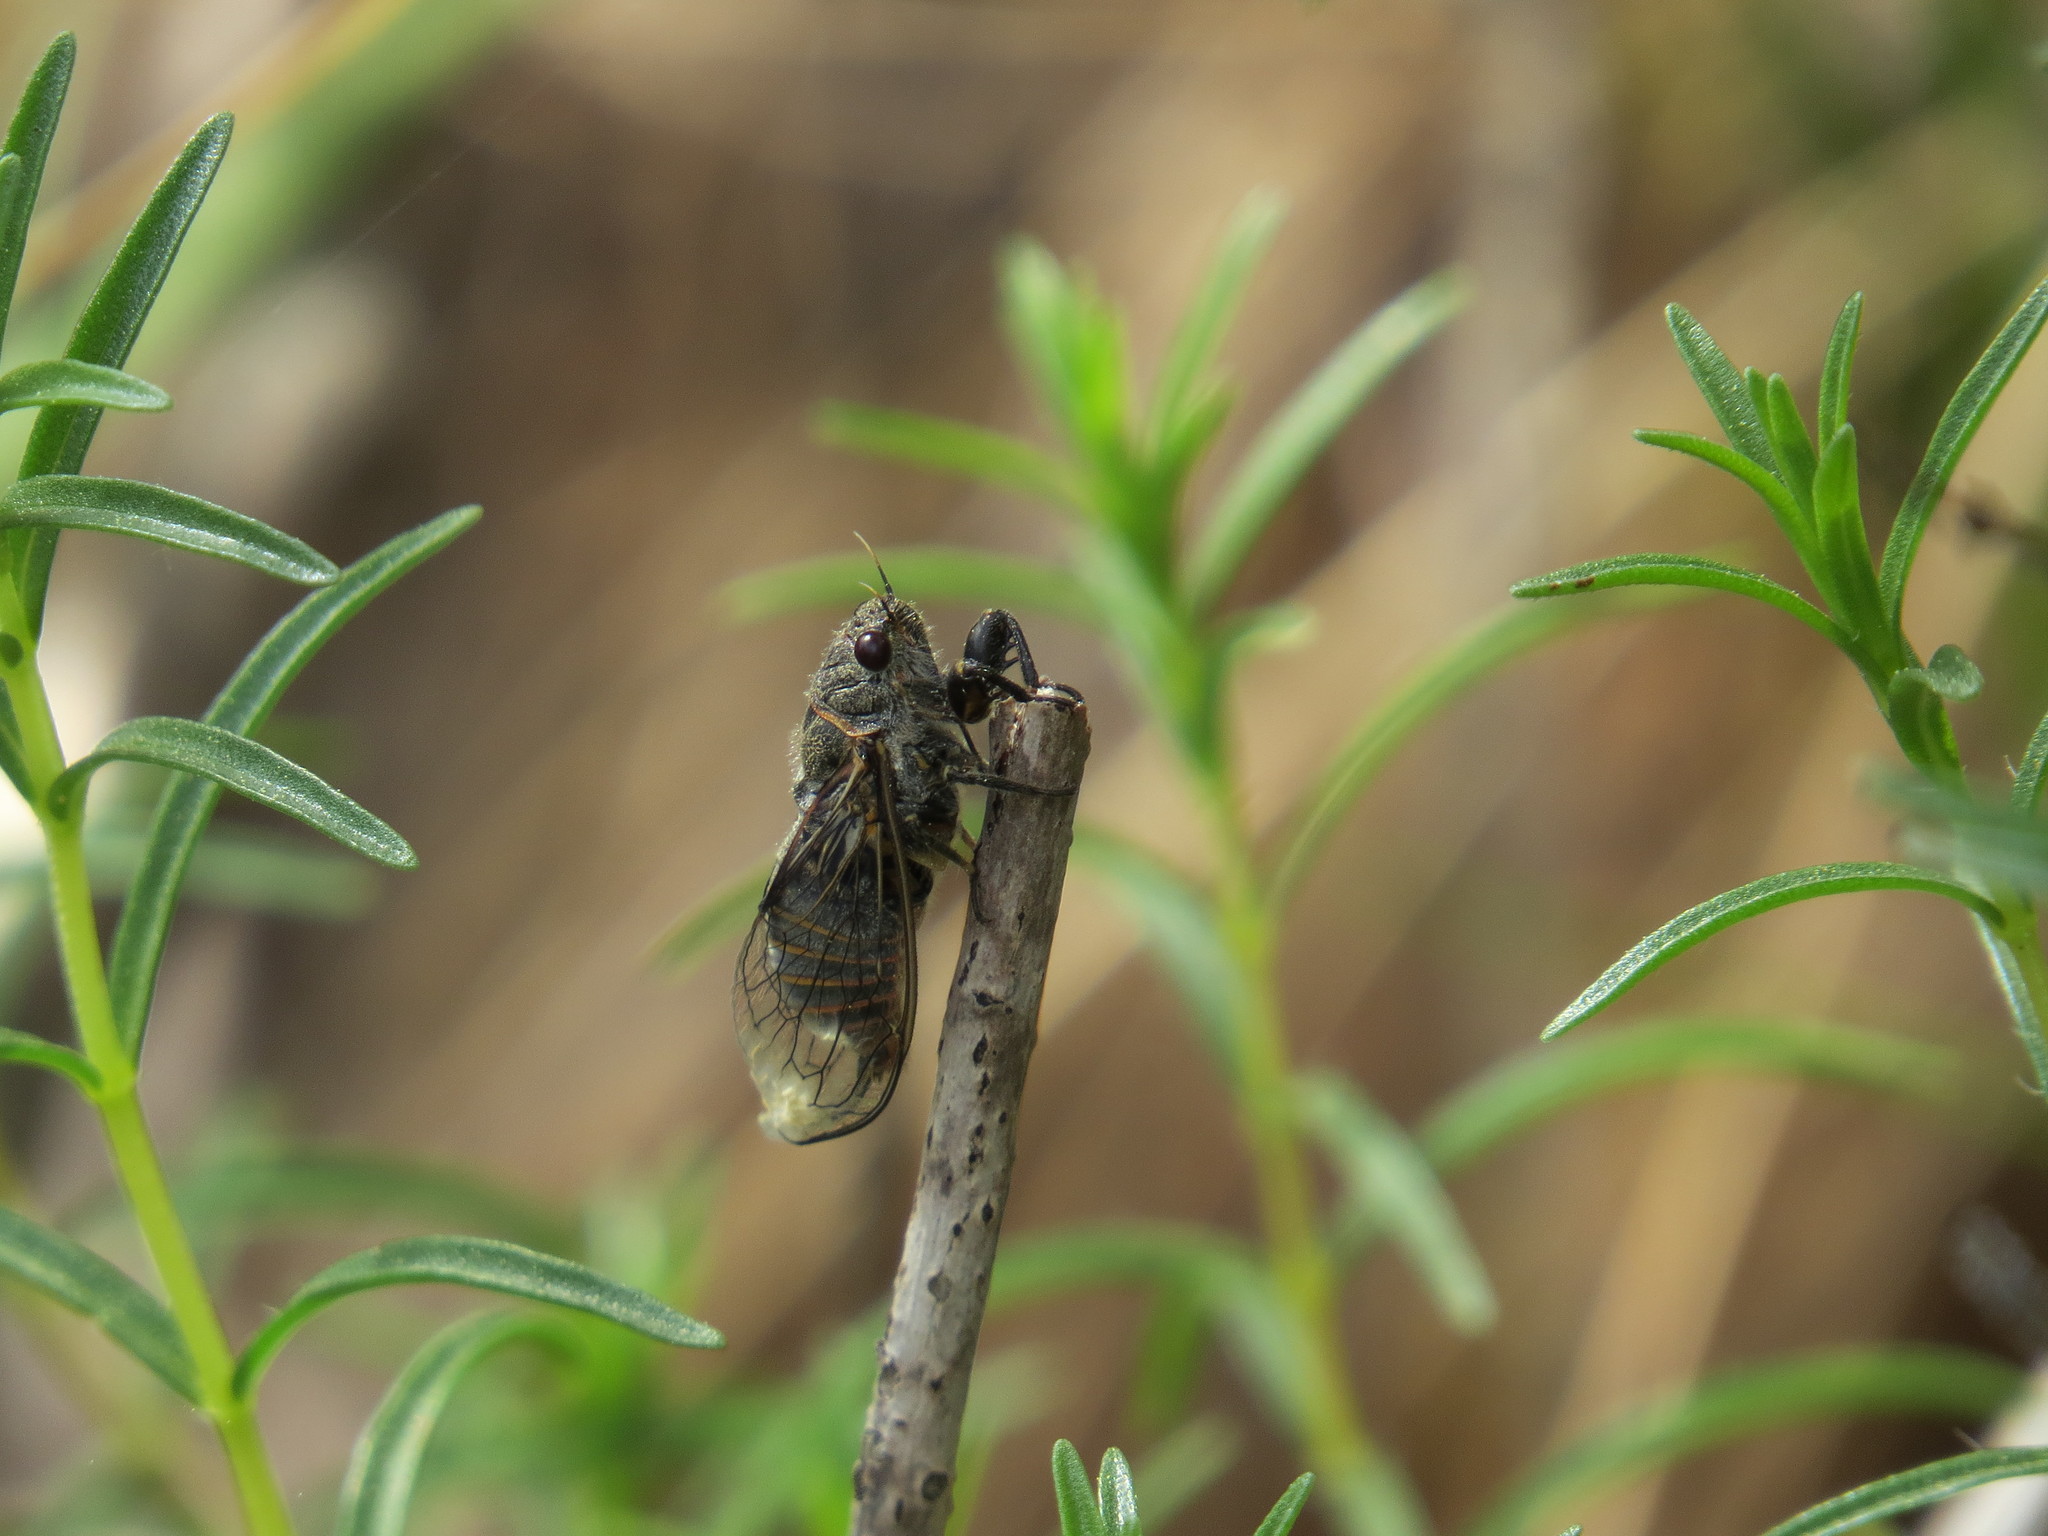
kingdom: Animalia
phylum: Arthropoda
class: Insecta
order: Hemiptera
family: Cicadidae
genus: Oligoglena
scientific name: Oligoglena gogalai
